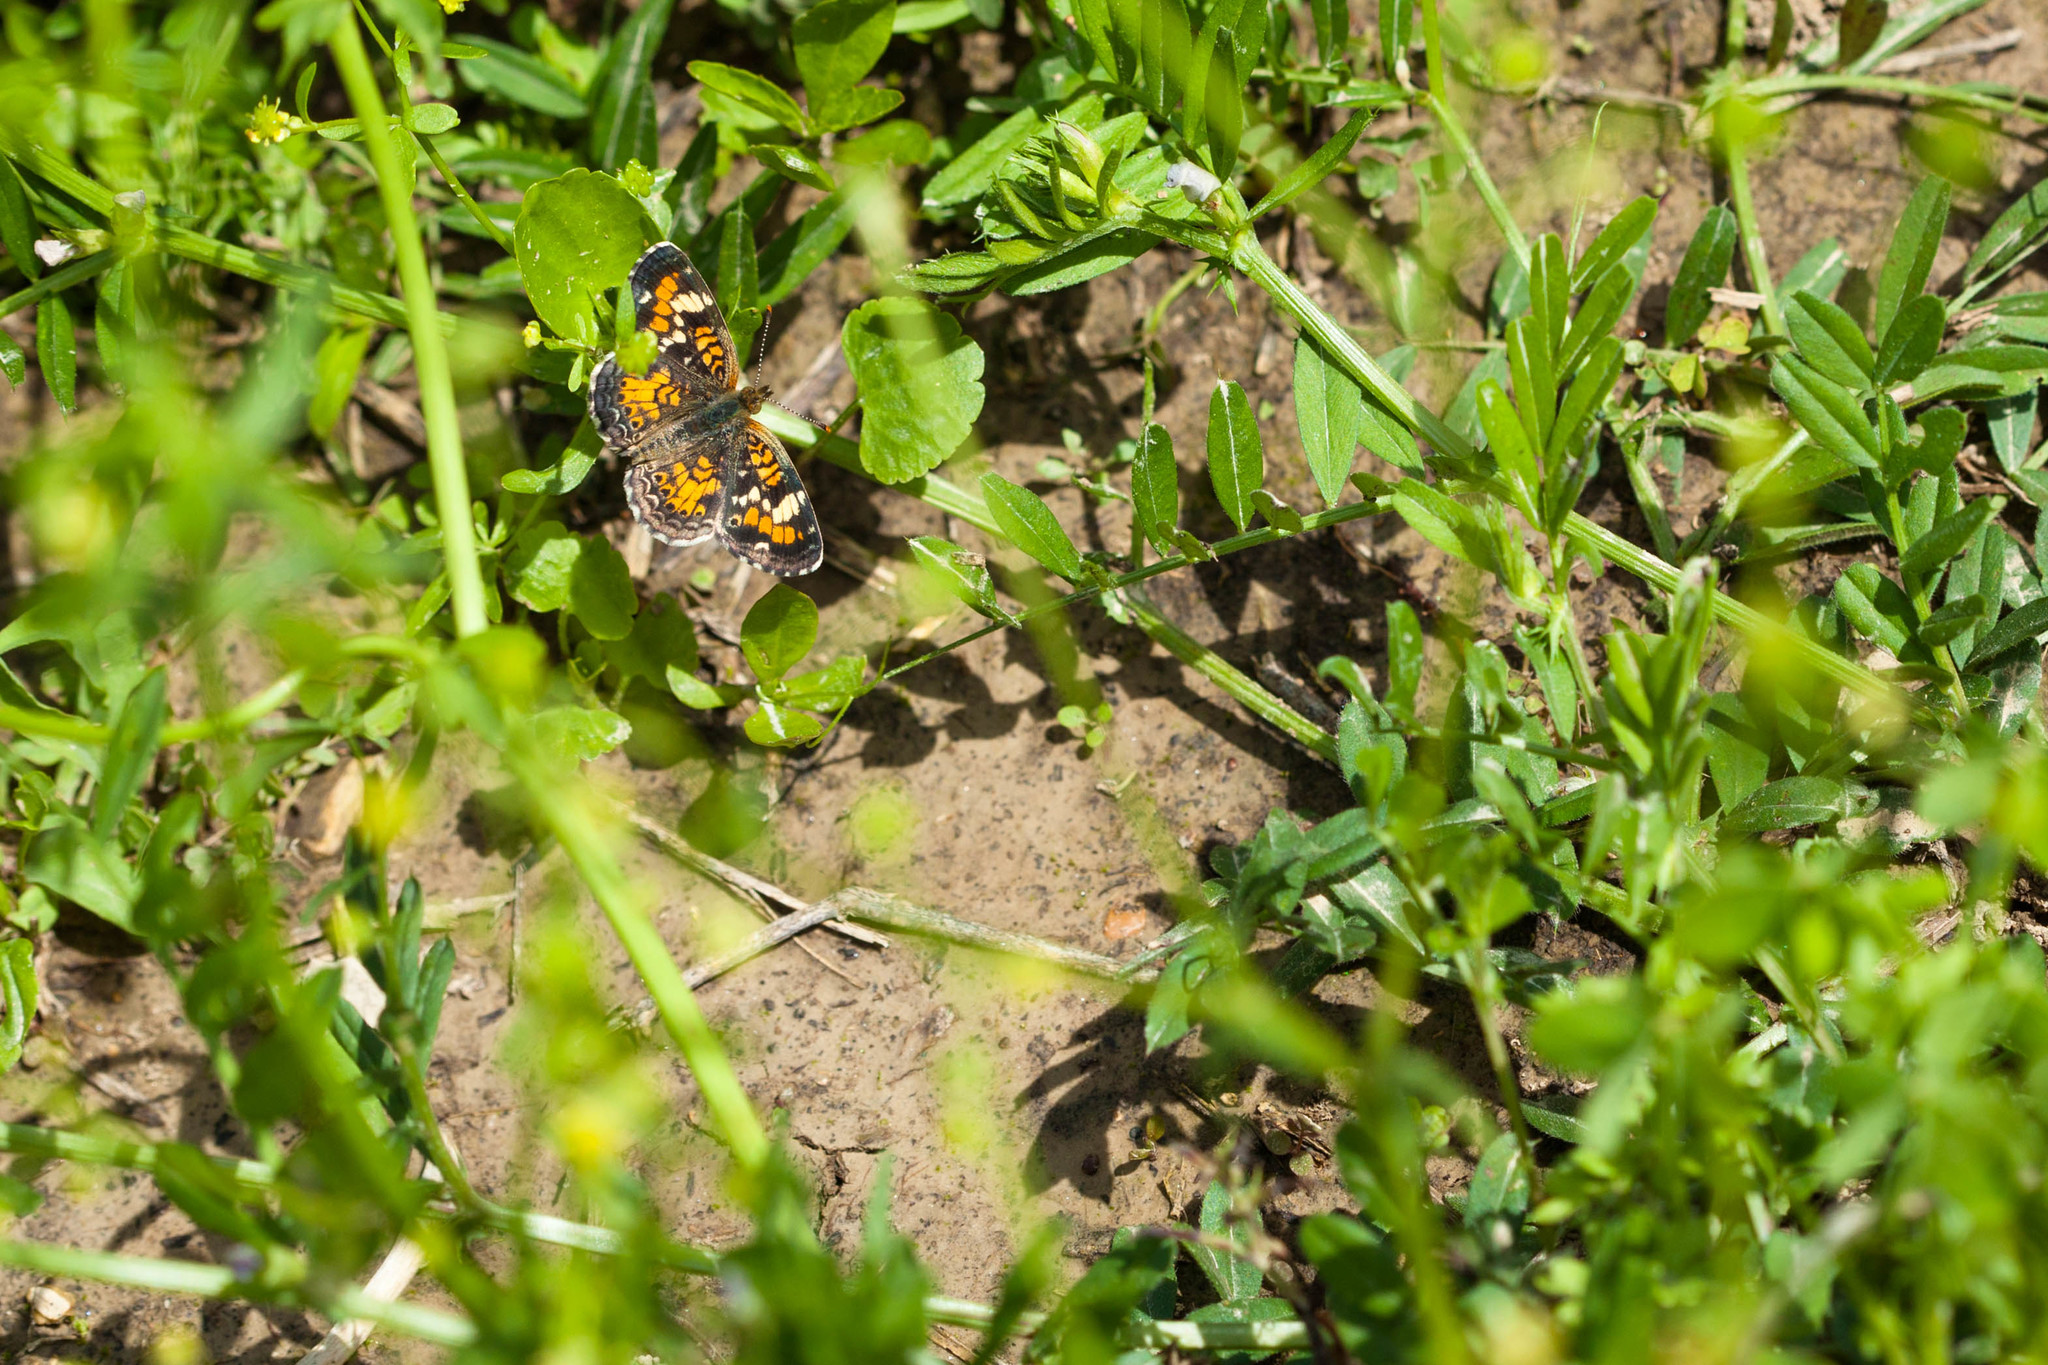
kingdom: Animalia
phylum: Arthropoda
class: Insecta
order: Lepidoptera
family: Nymphalidae
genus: Phyciodes
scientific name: Phyciodes phaon
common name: Phaon crescent
